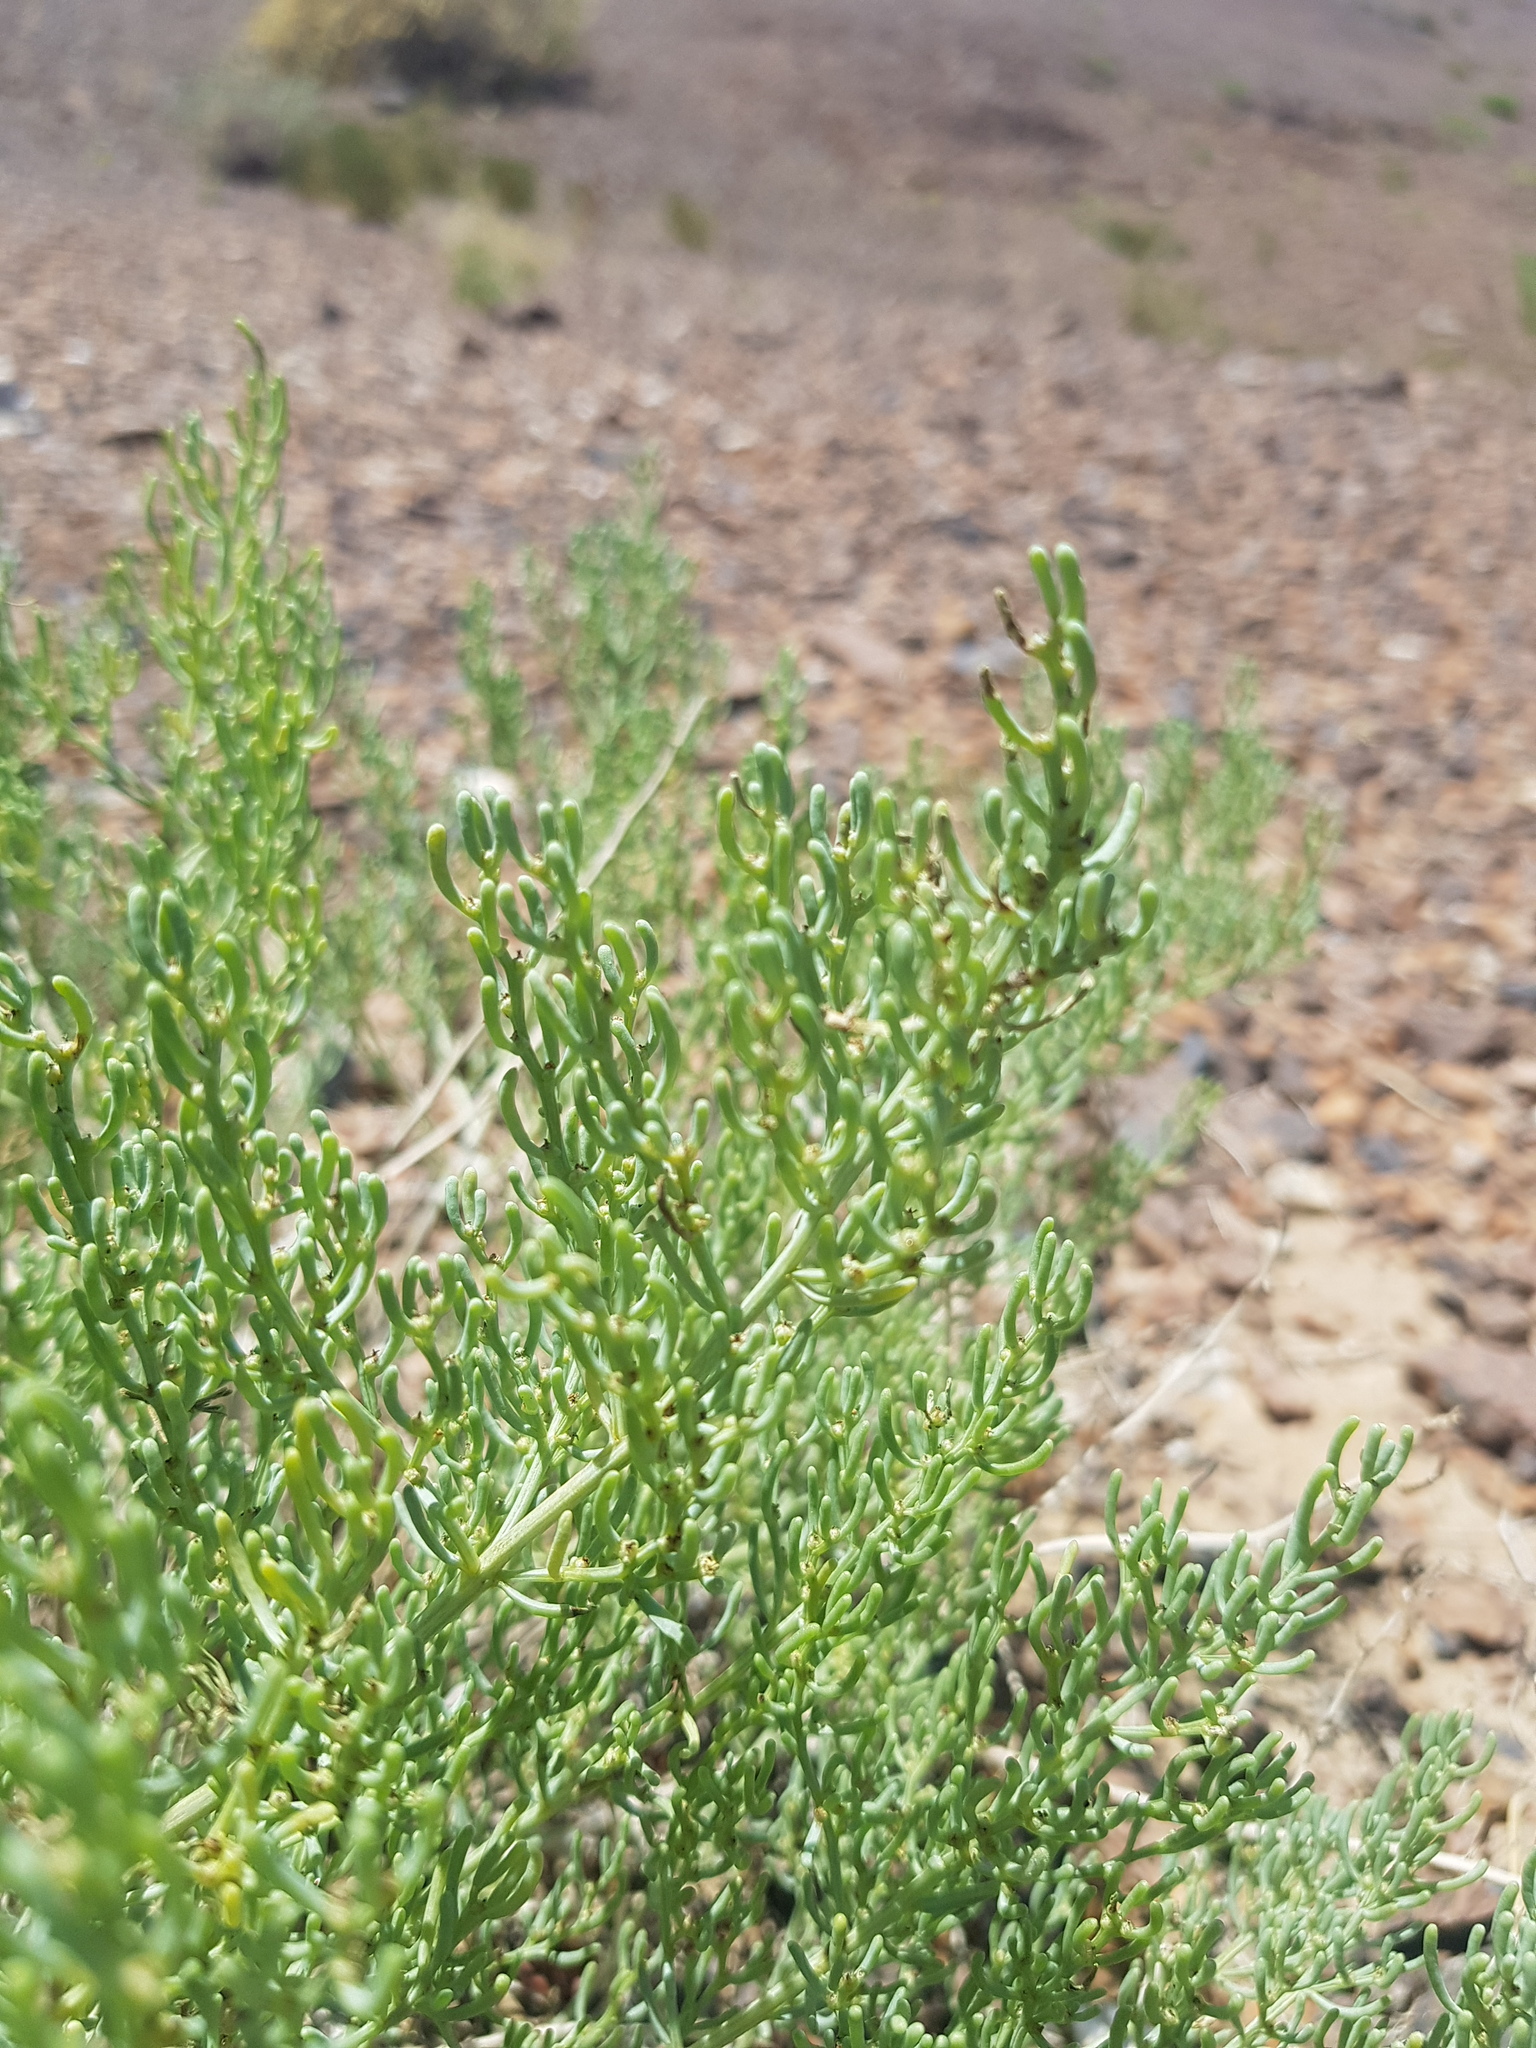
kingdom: Plantae
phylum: Tracheophyta
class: Magnoliopsida
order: Caryophyllales
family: Amaranthaceae
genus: Haloxylon
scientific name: Haloxylon regelii
